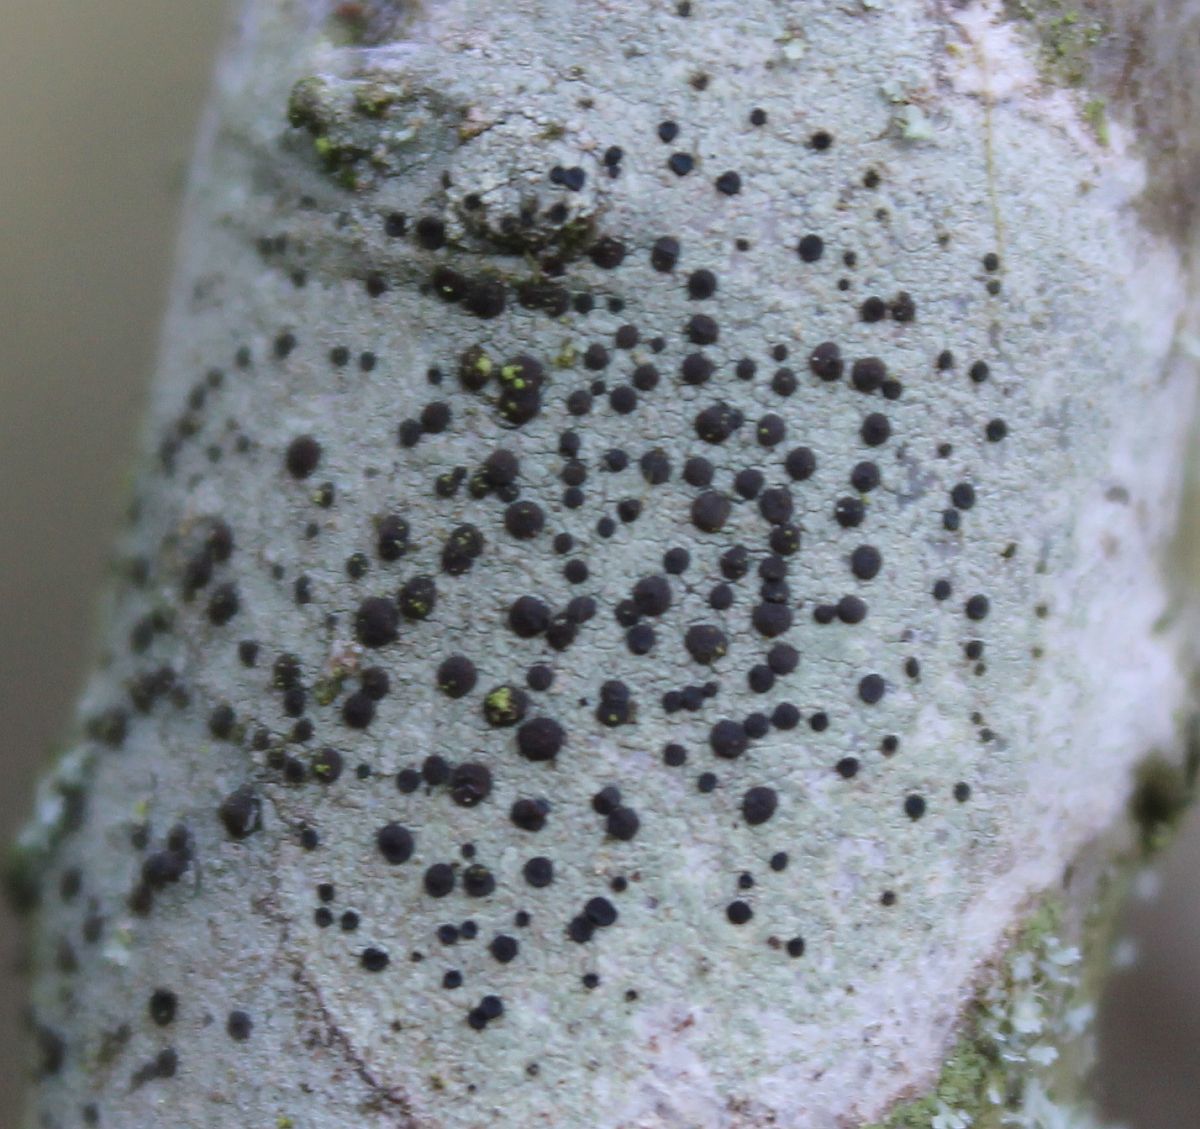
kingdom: Fungi
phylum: Ascomycota
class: Lecanoromycetes
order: Lecanorales
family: Lecanoraceae
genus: Lecidella
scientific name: Lecidella elaeochroma
